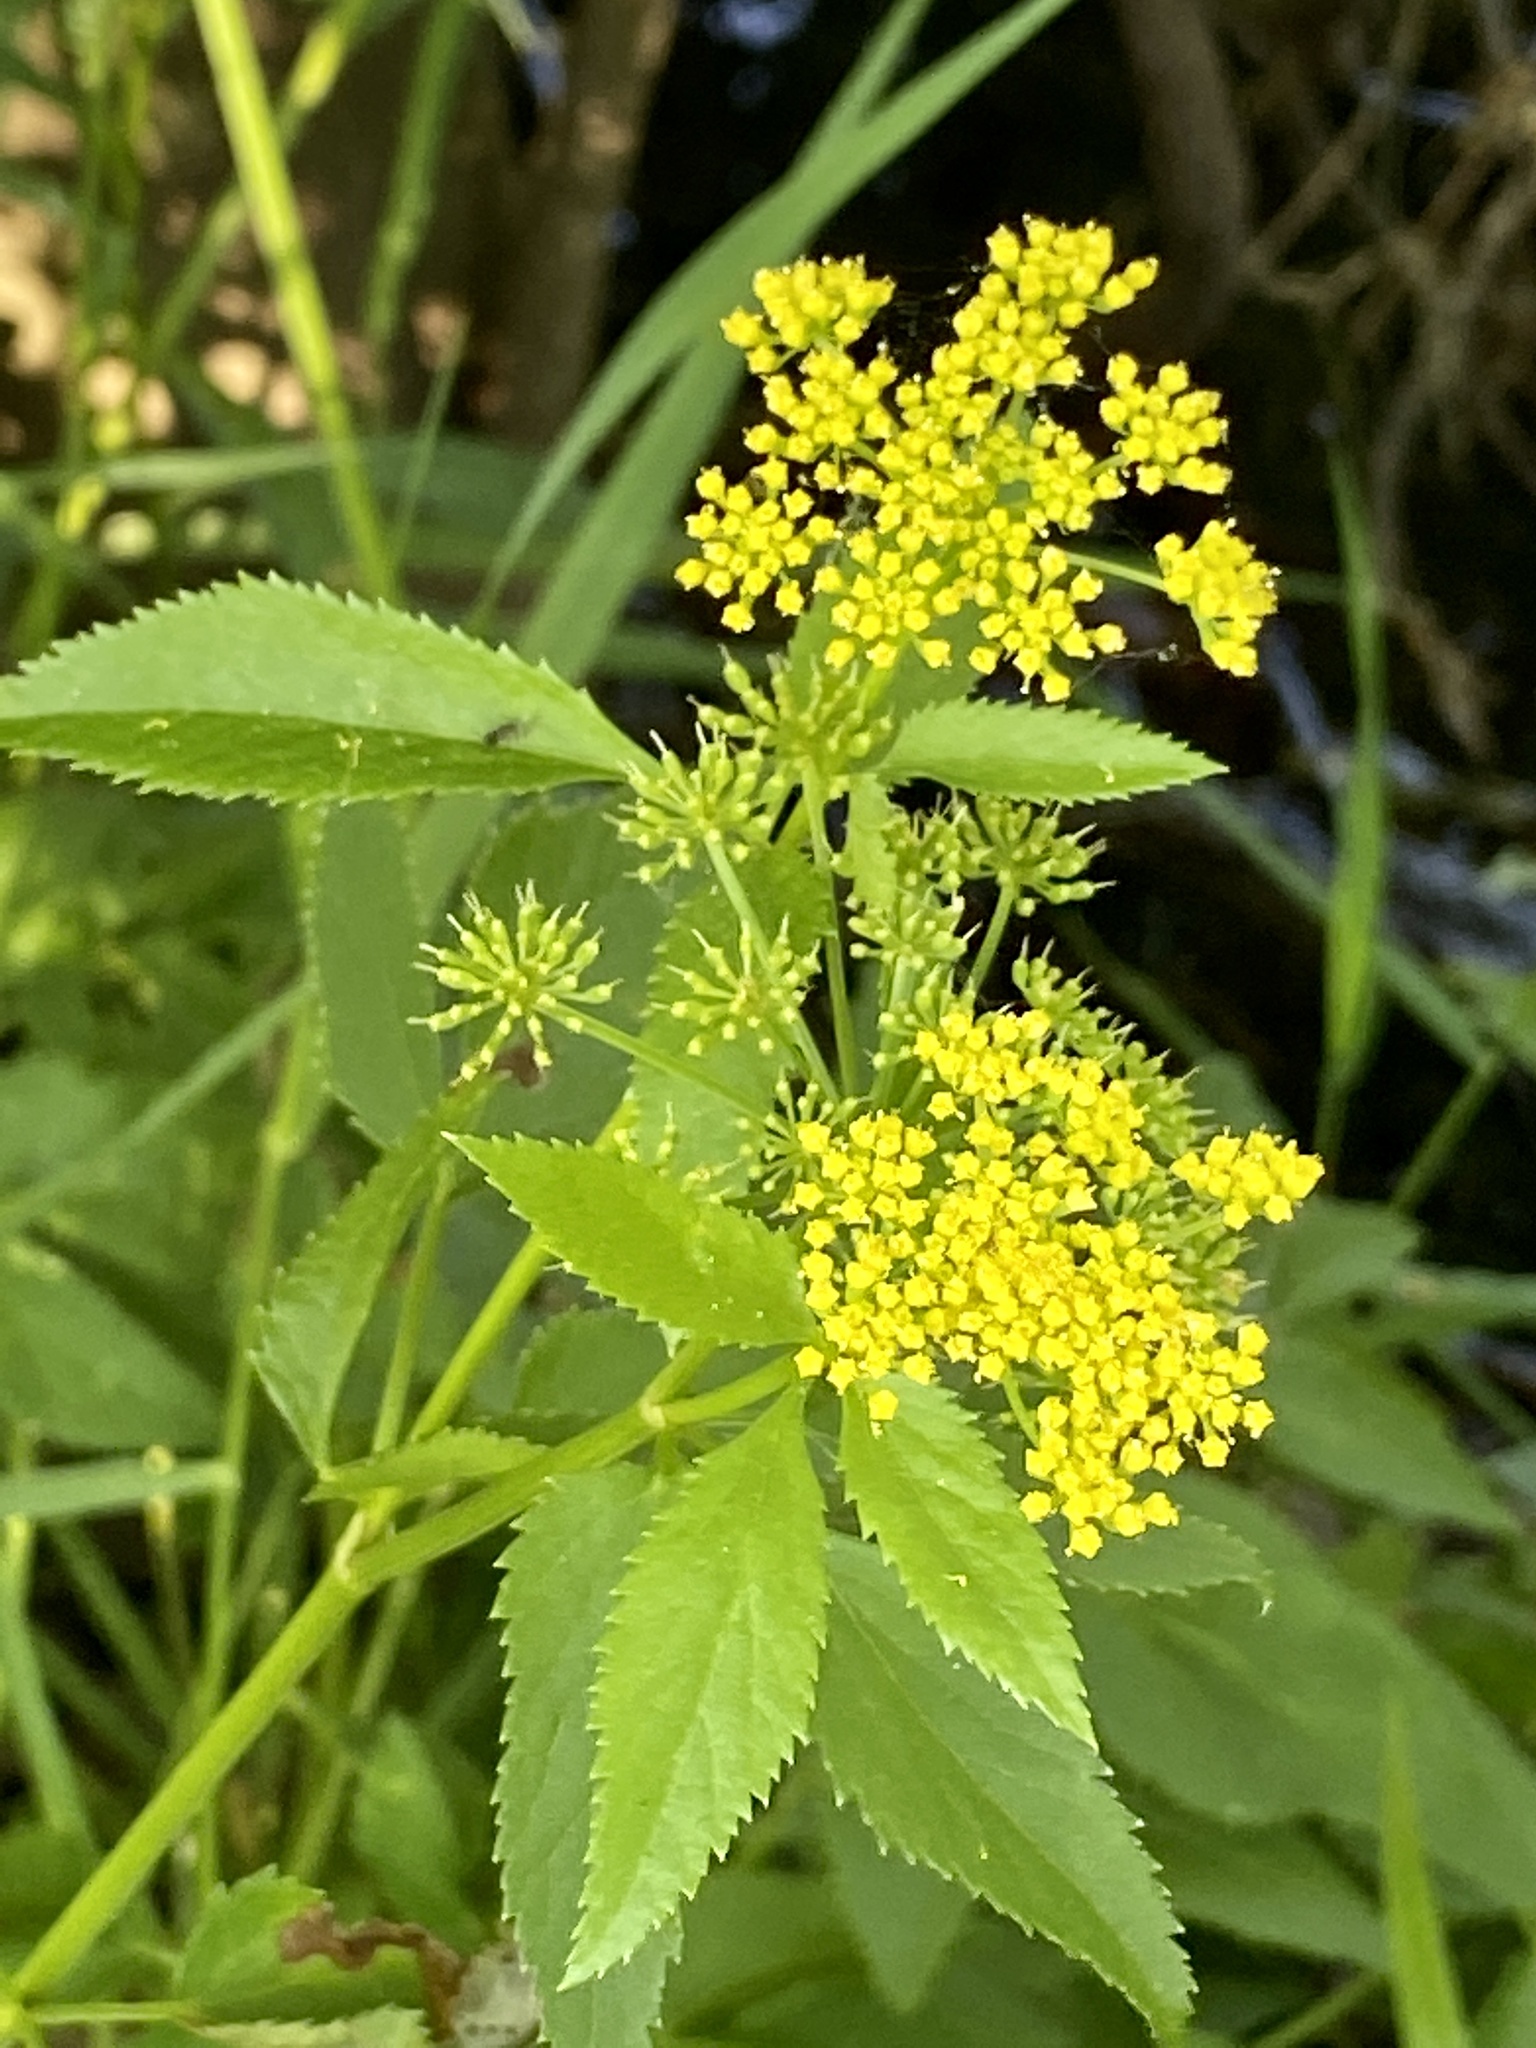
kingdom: Plantae
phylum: Tracheophyta
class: Magnoliopsida
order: Apiales
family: Apiaceae
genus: Zizia
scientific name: Zizia aurea
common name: Golden alexanders
